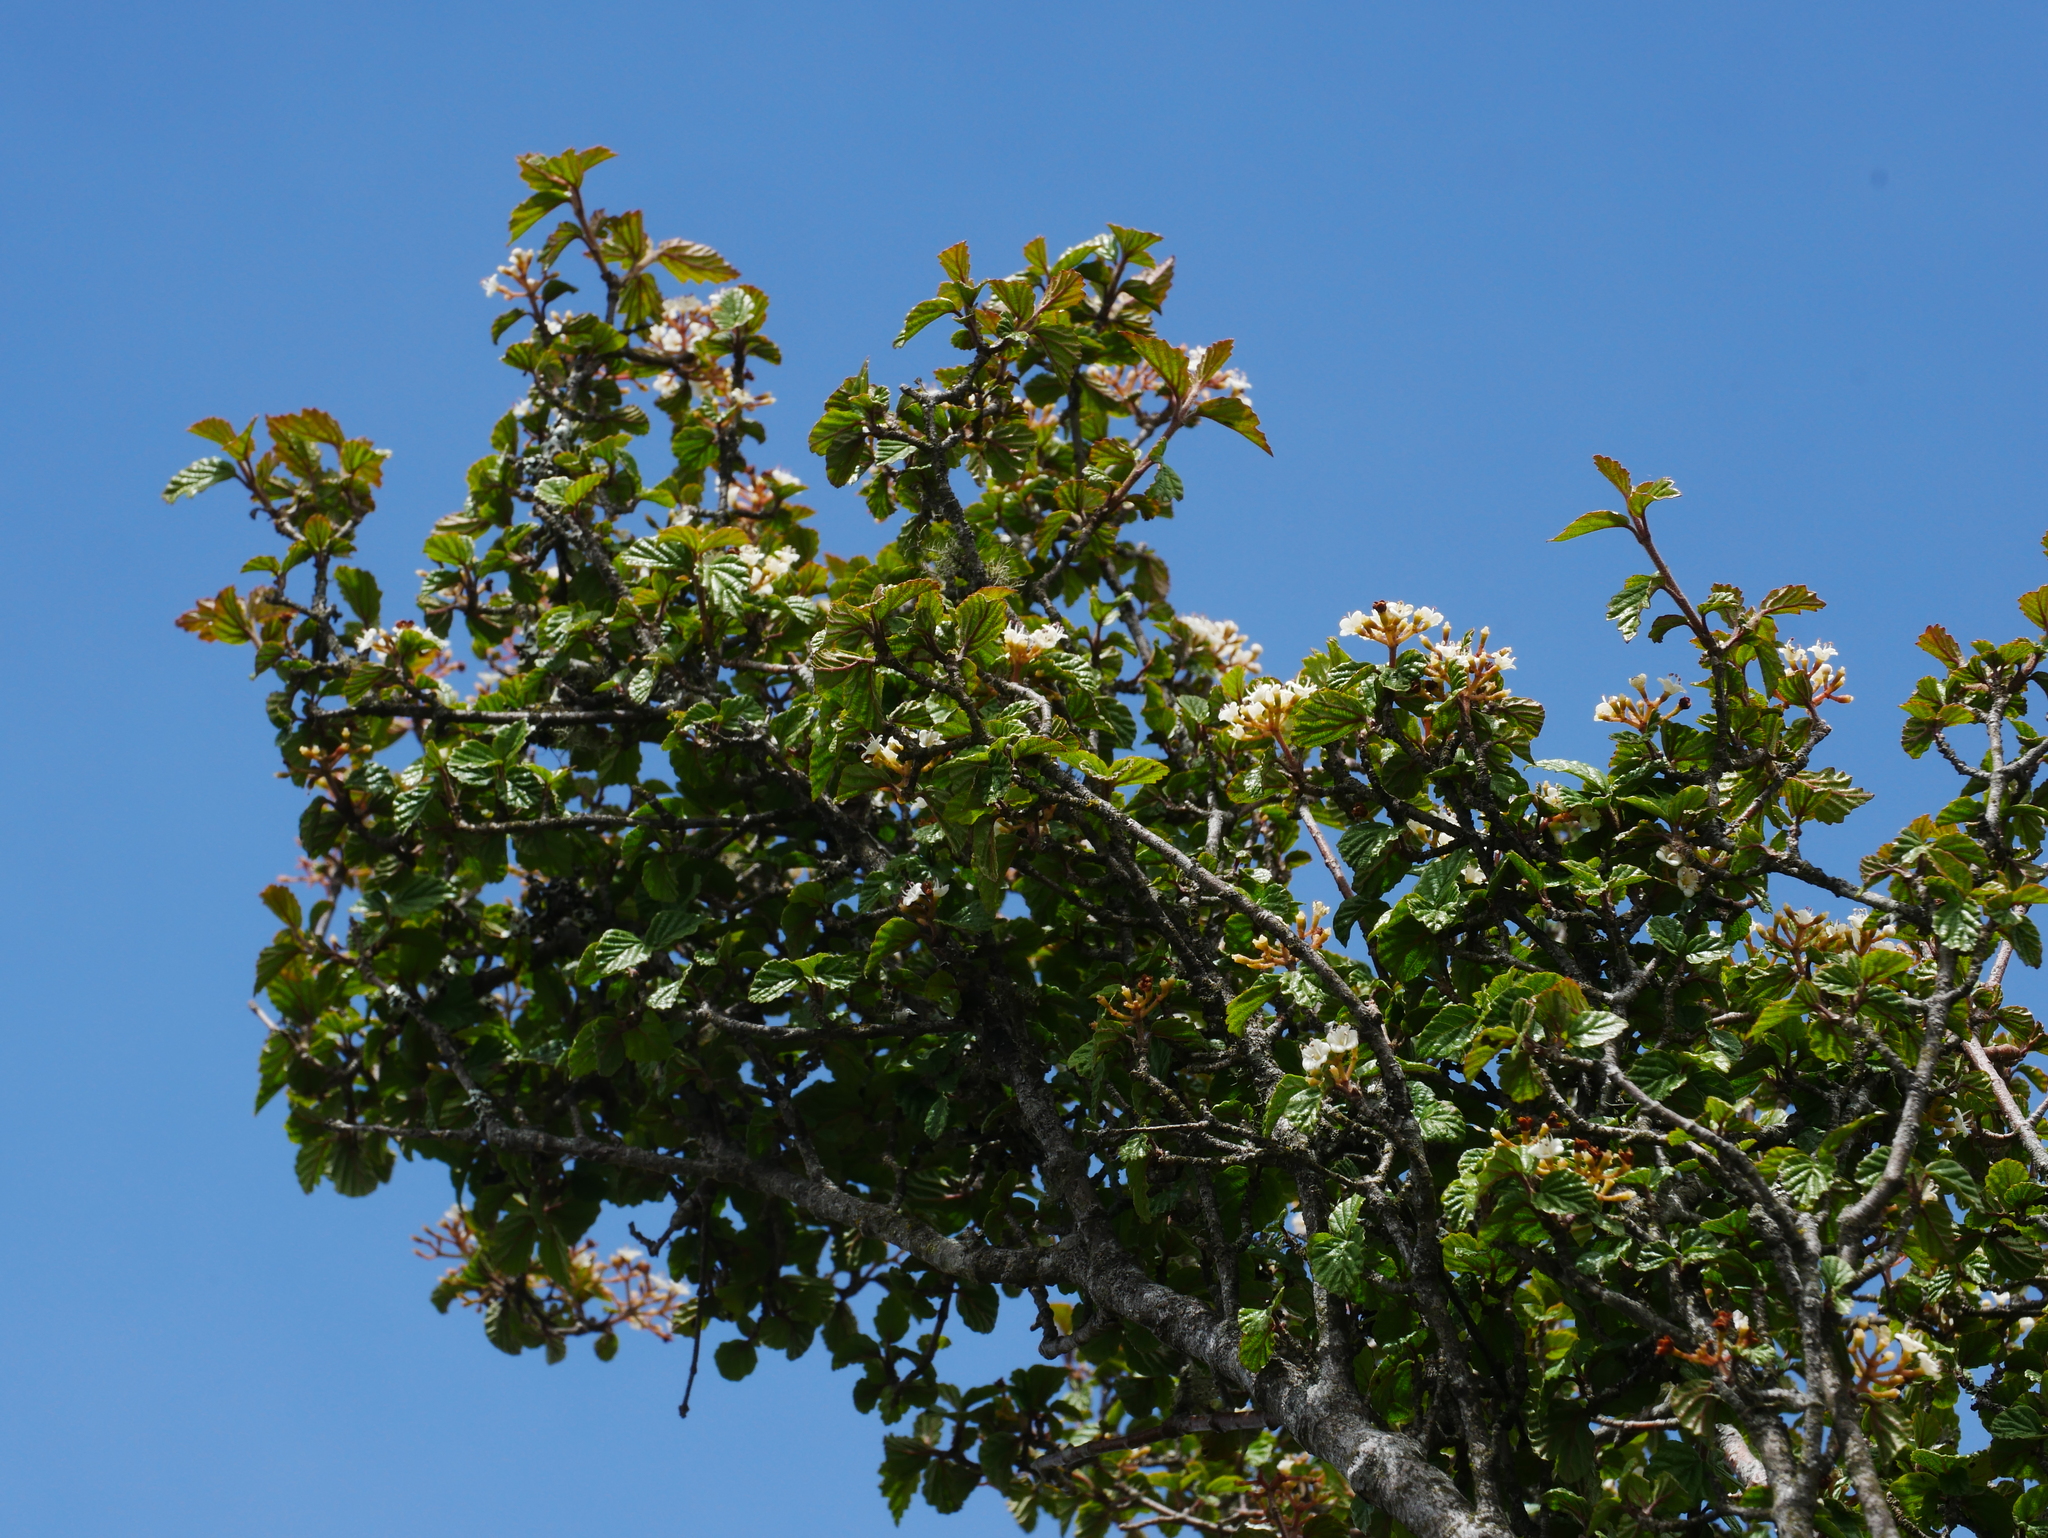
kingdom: Plantae
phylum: Tracheophyta
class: Magnoliopsida
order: Dipsacales
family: Viburnaceae
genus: Viburnum
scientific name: Viburnum parvifolium
